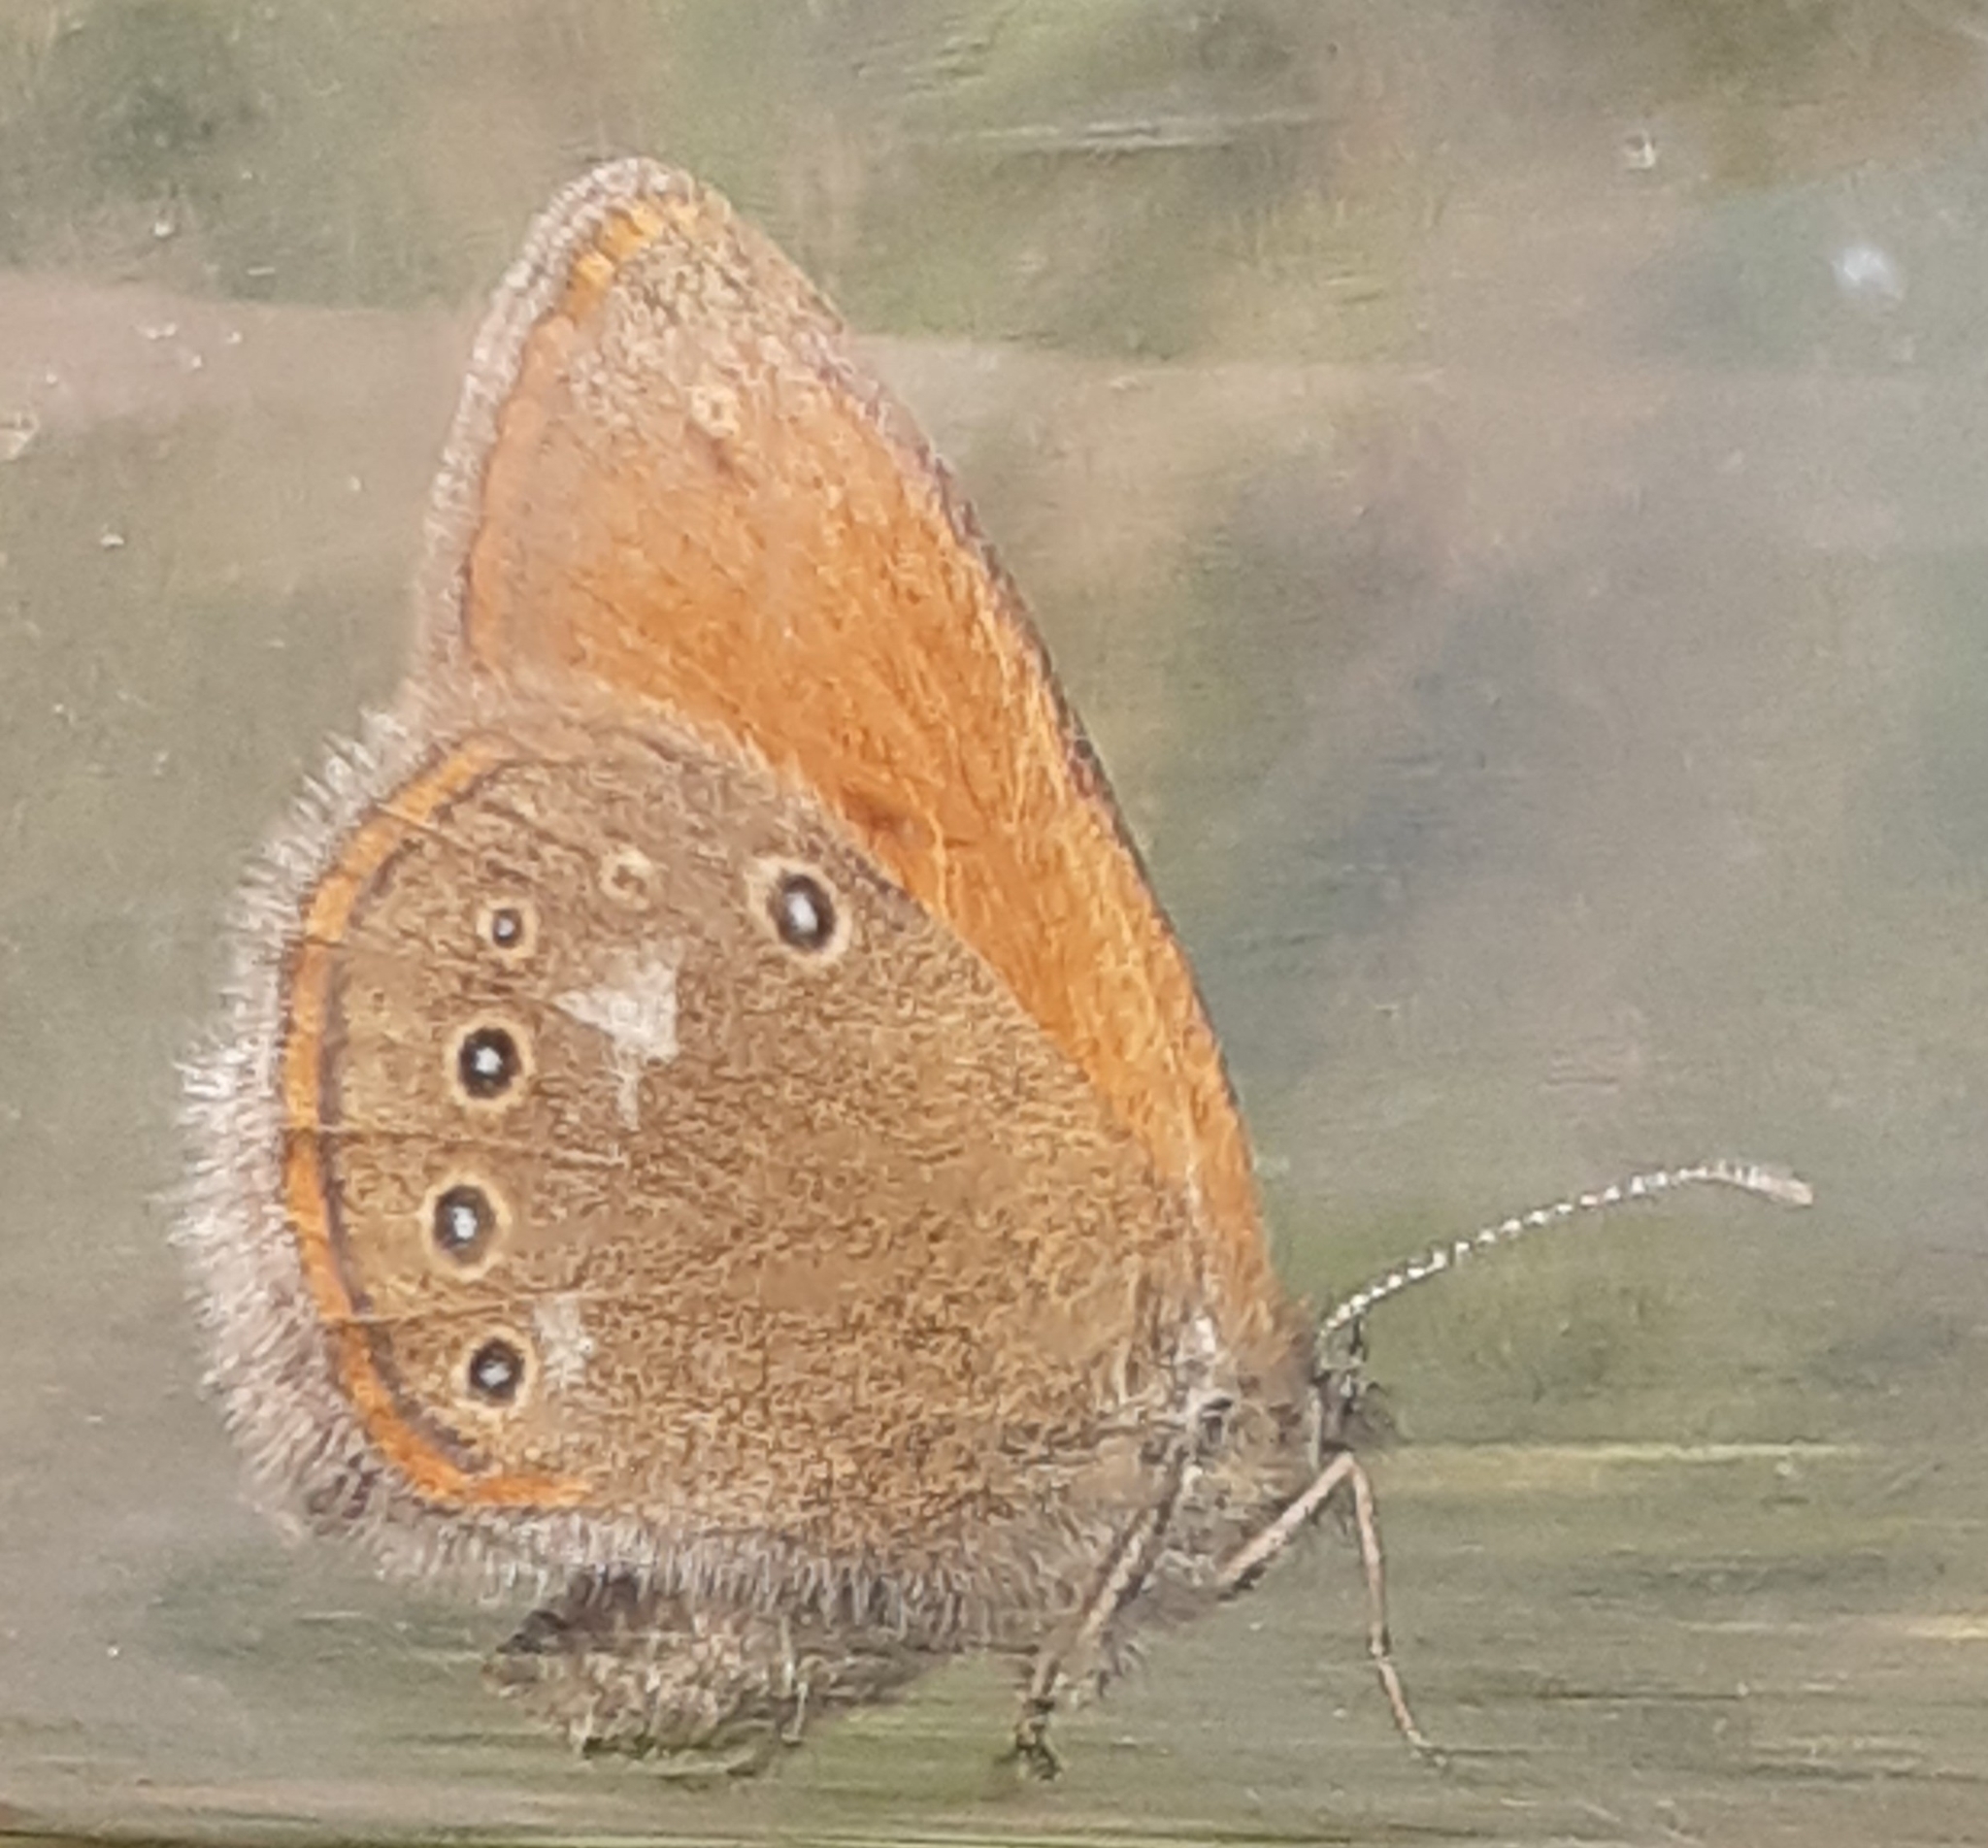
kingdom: Animalia
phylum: Arthropoda
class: Insecta
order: Lepidoptera
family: Nymphalidae
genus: Coenonympha
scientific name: Coenonympha iphis
